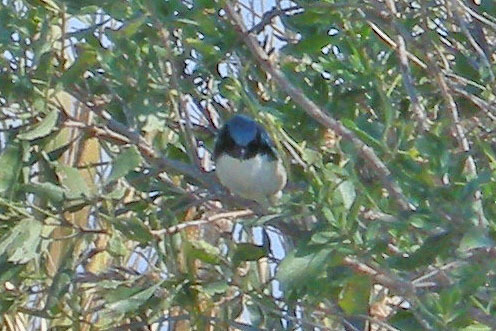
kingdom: Animalia
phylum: Chordata
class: Aves
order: Passeriformes
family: Parulidae
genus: Setophaga
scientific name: Setophaga caerulescens
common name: Black-throated blue warbler
